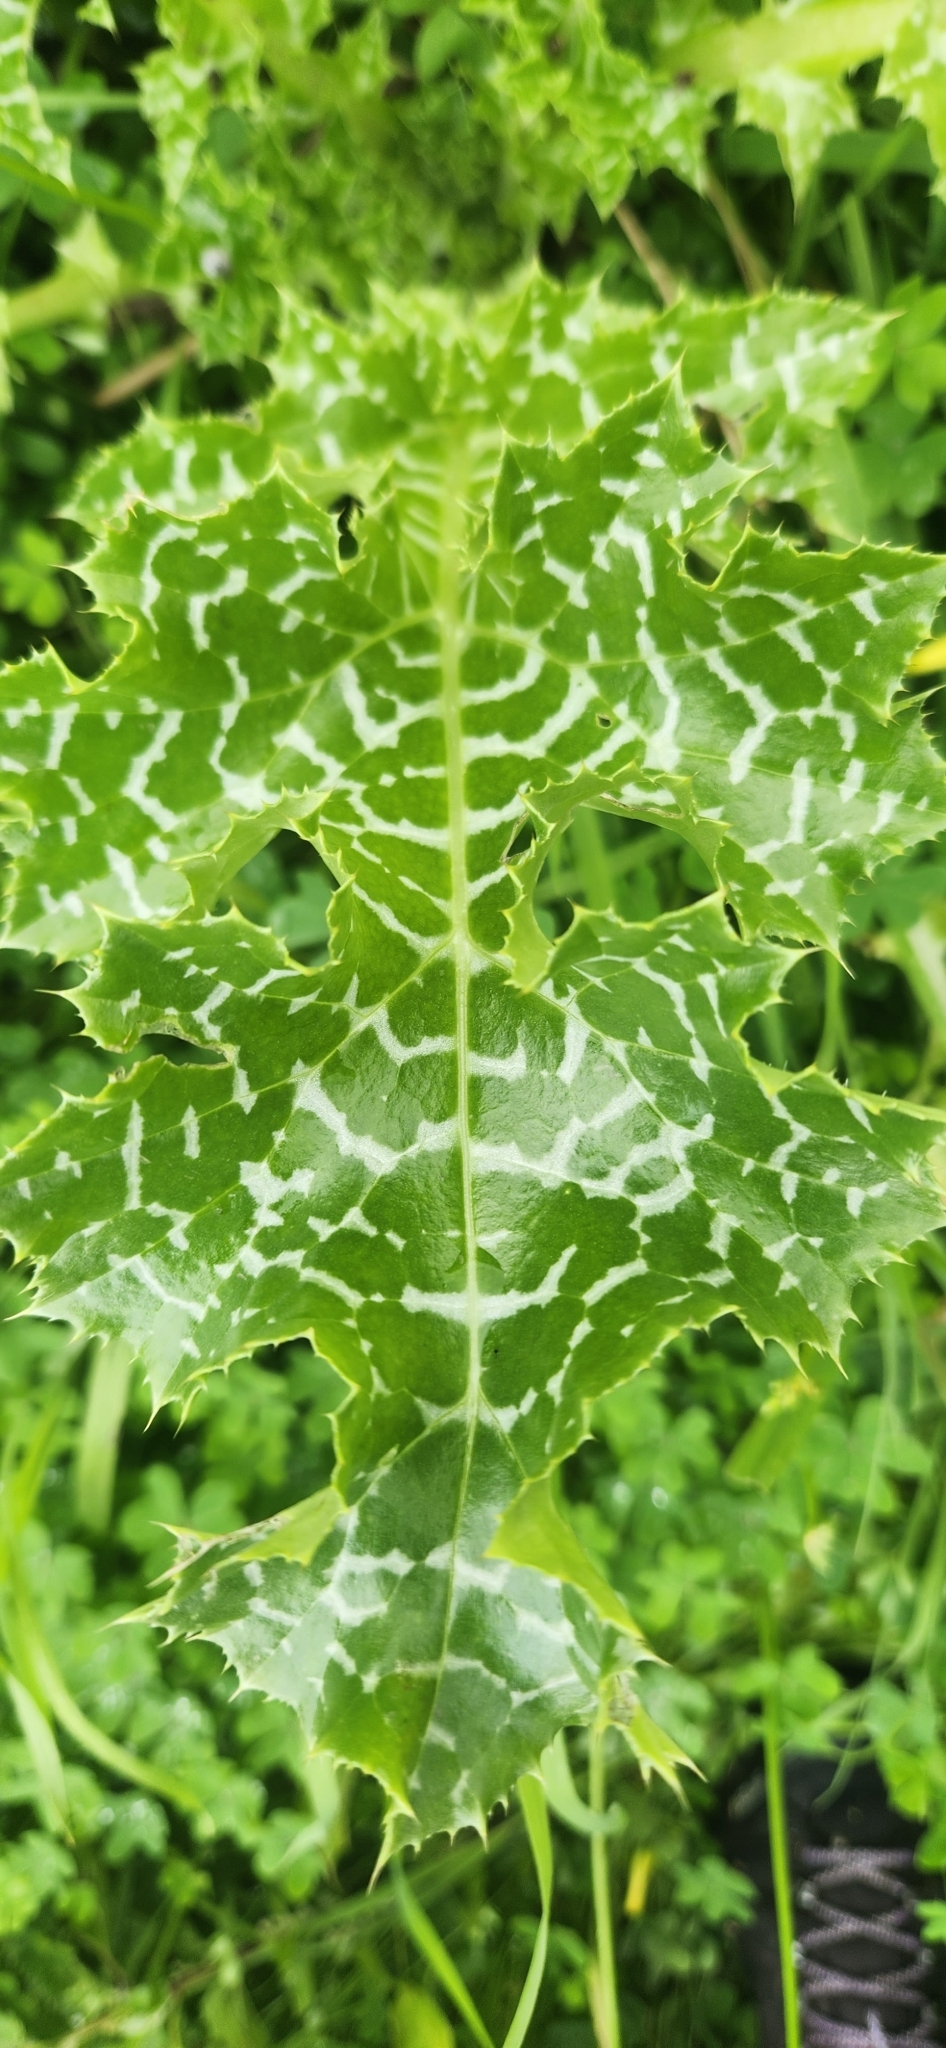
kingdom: Plantae
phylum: Tracheophyta
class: Magnoliopsida
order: Asterales
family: Asteraceae
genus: Silybum
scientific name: Silybum marianum
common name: Milk thistle
